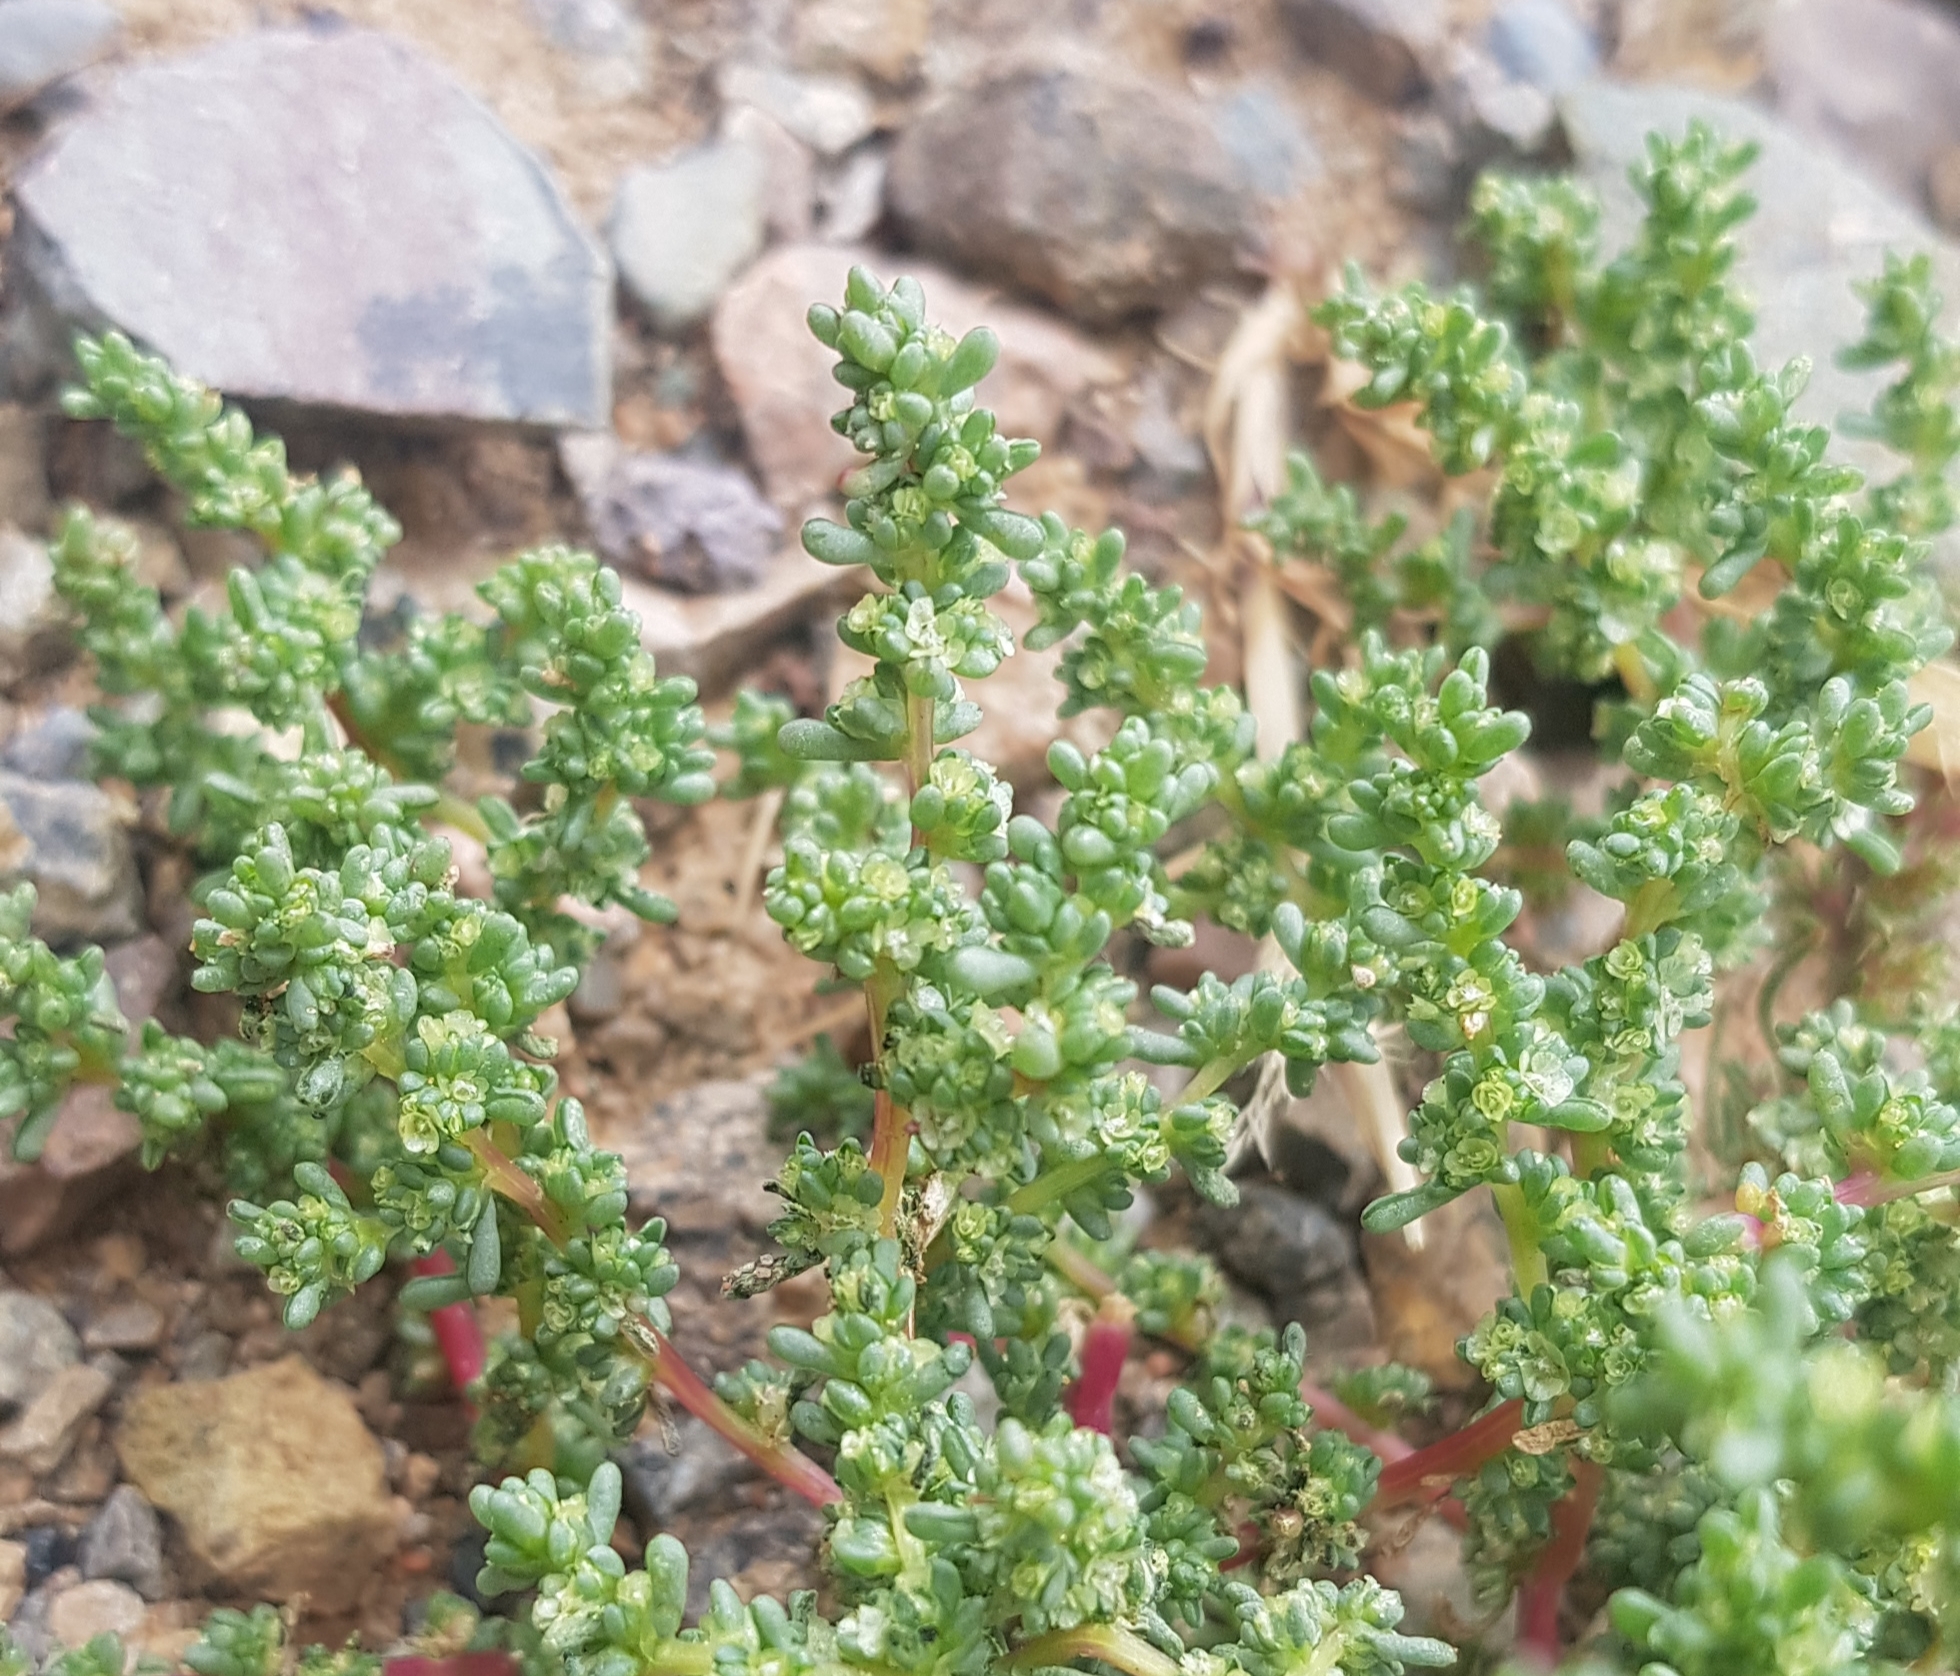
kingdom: Plantae
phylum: Tracheophyta
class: Magnoliopsida
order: Caryophyllales
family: Amaranthaceae
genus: Halogeton
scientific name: Halogeton arachnoides
